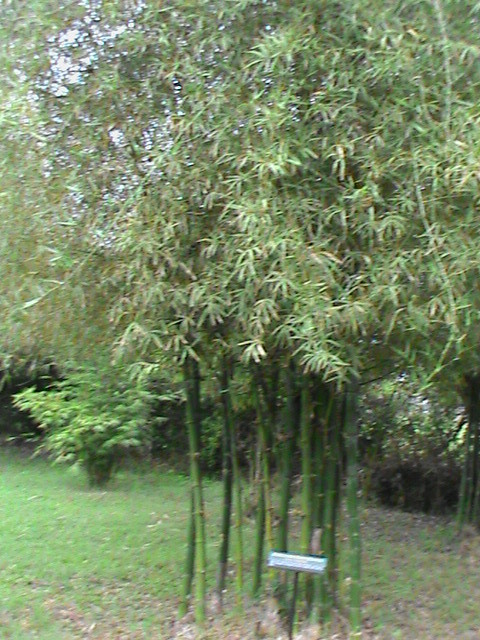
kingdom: Plantae
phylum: Tracheophyta
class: Liliopsida
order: Poales
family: Poaceae
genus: Bambusa
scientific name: Bambusa vulgaris
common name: Common bamboo
